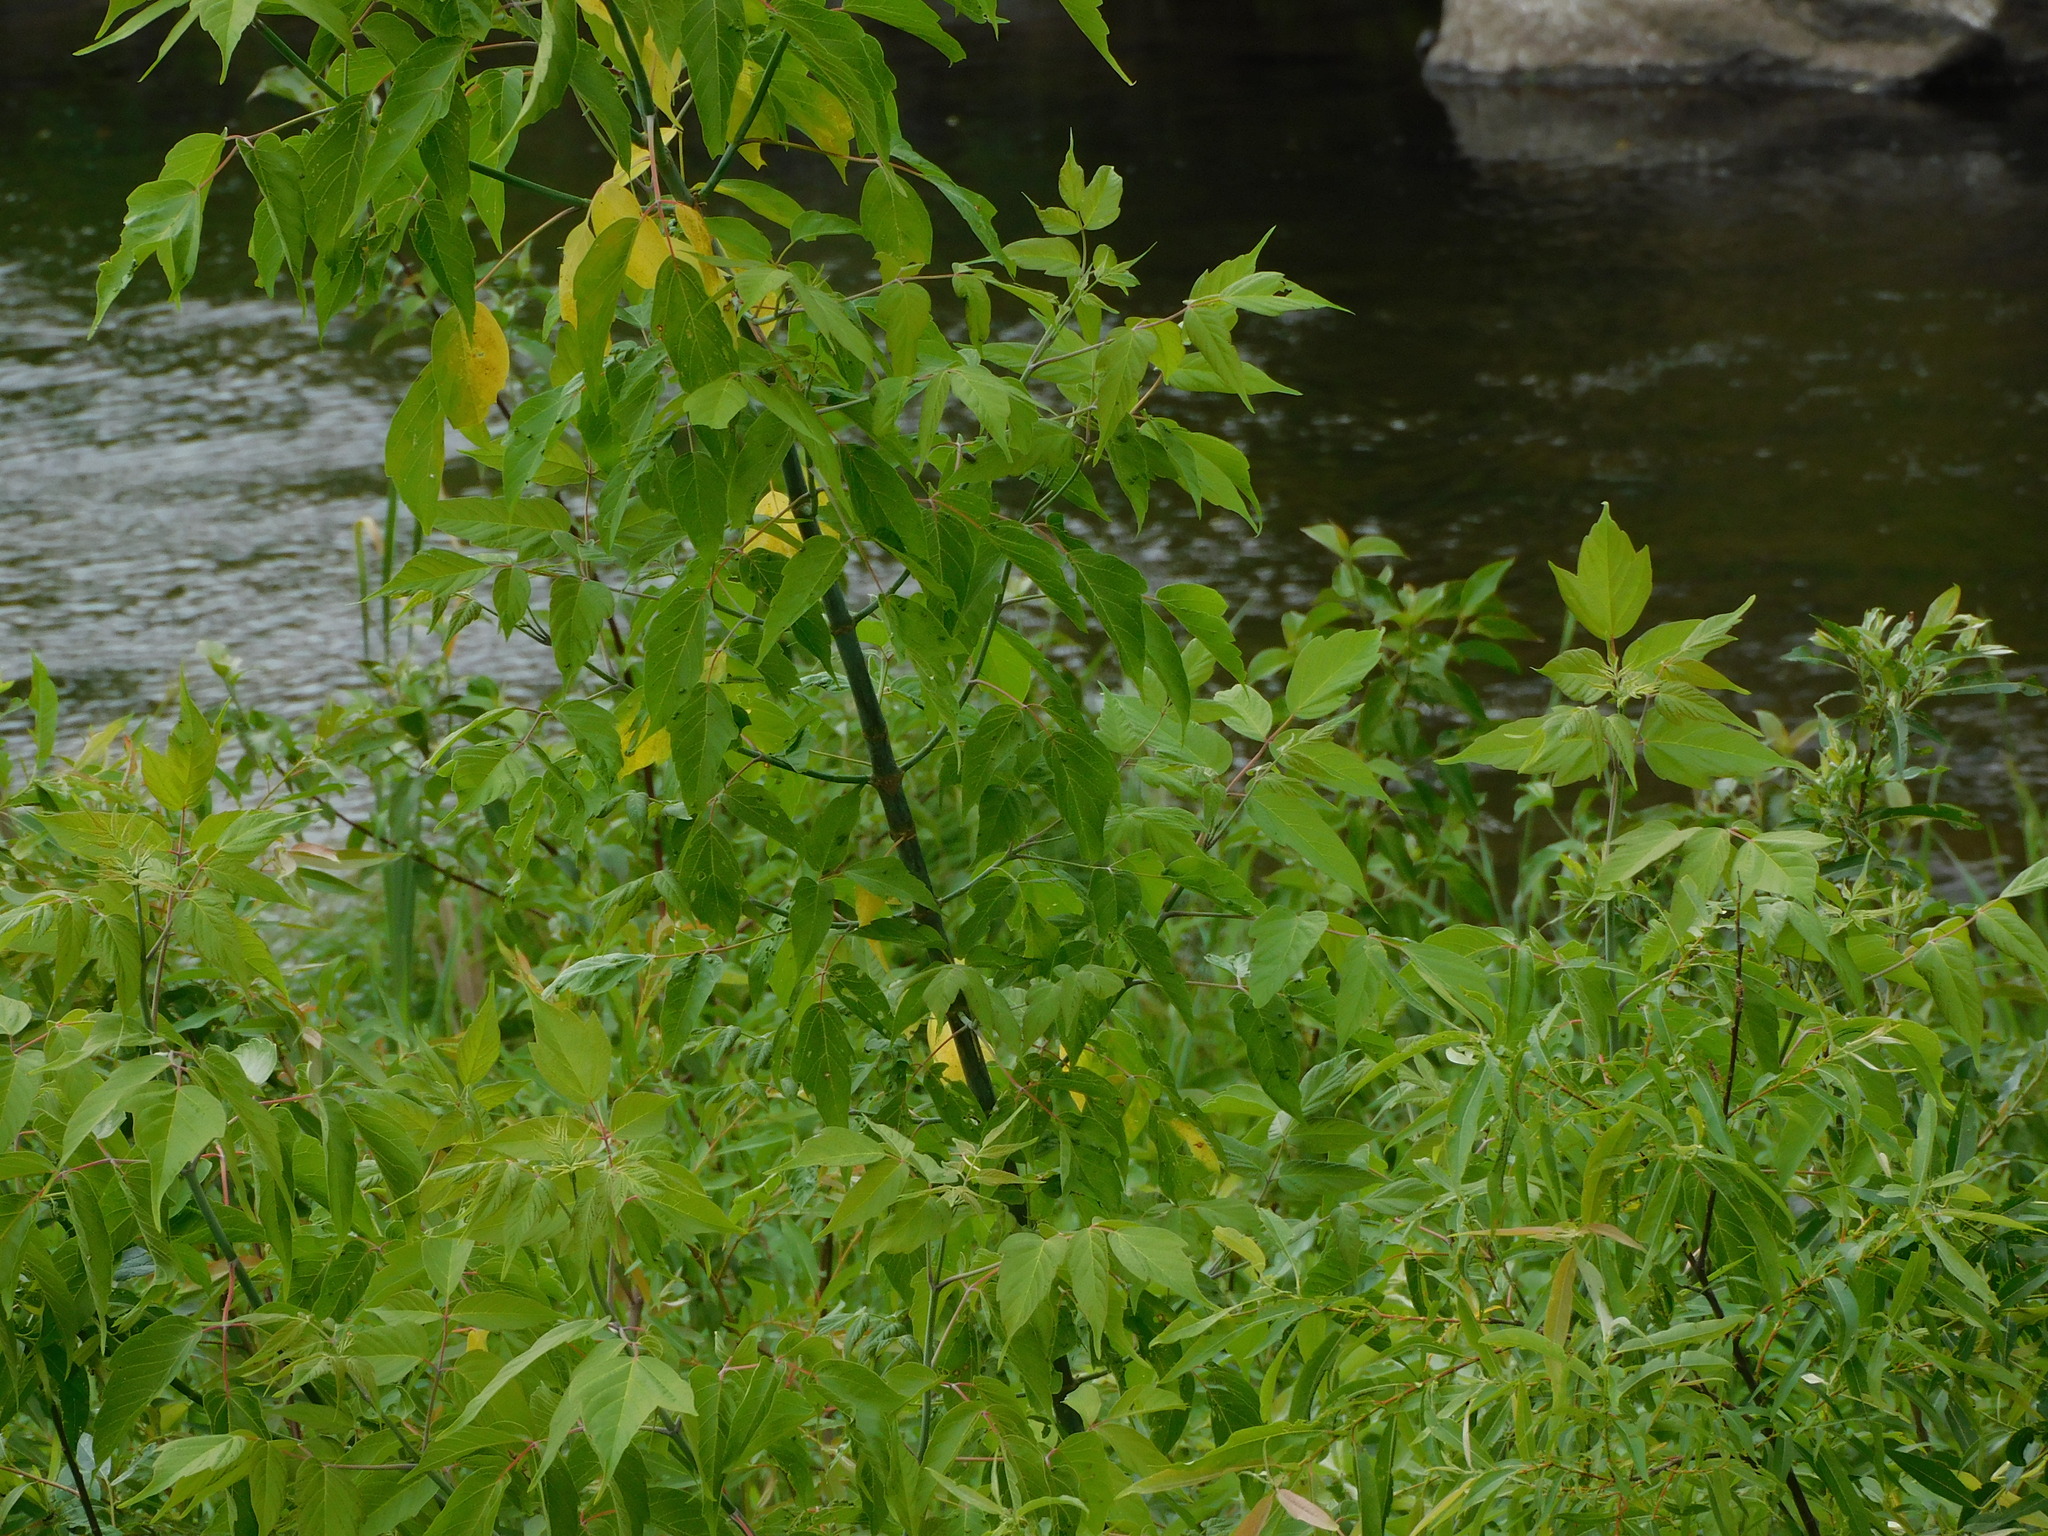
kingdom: Plantae
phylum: Tracheophyta
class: Magnoliopsida
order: Sapindales
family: Sapindaceae
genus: Acer
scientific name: Acer negundo
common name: Ashleaf maple
